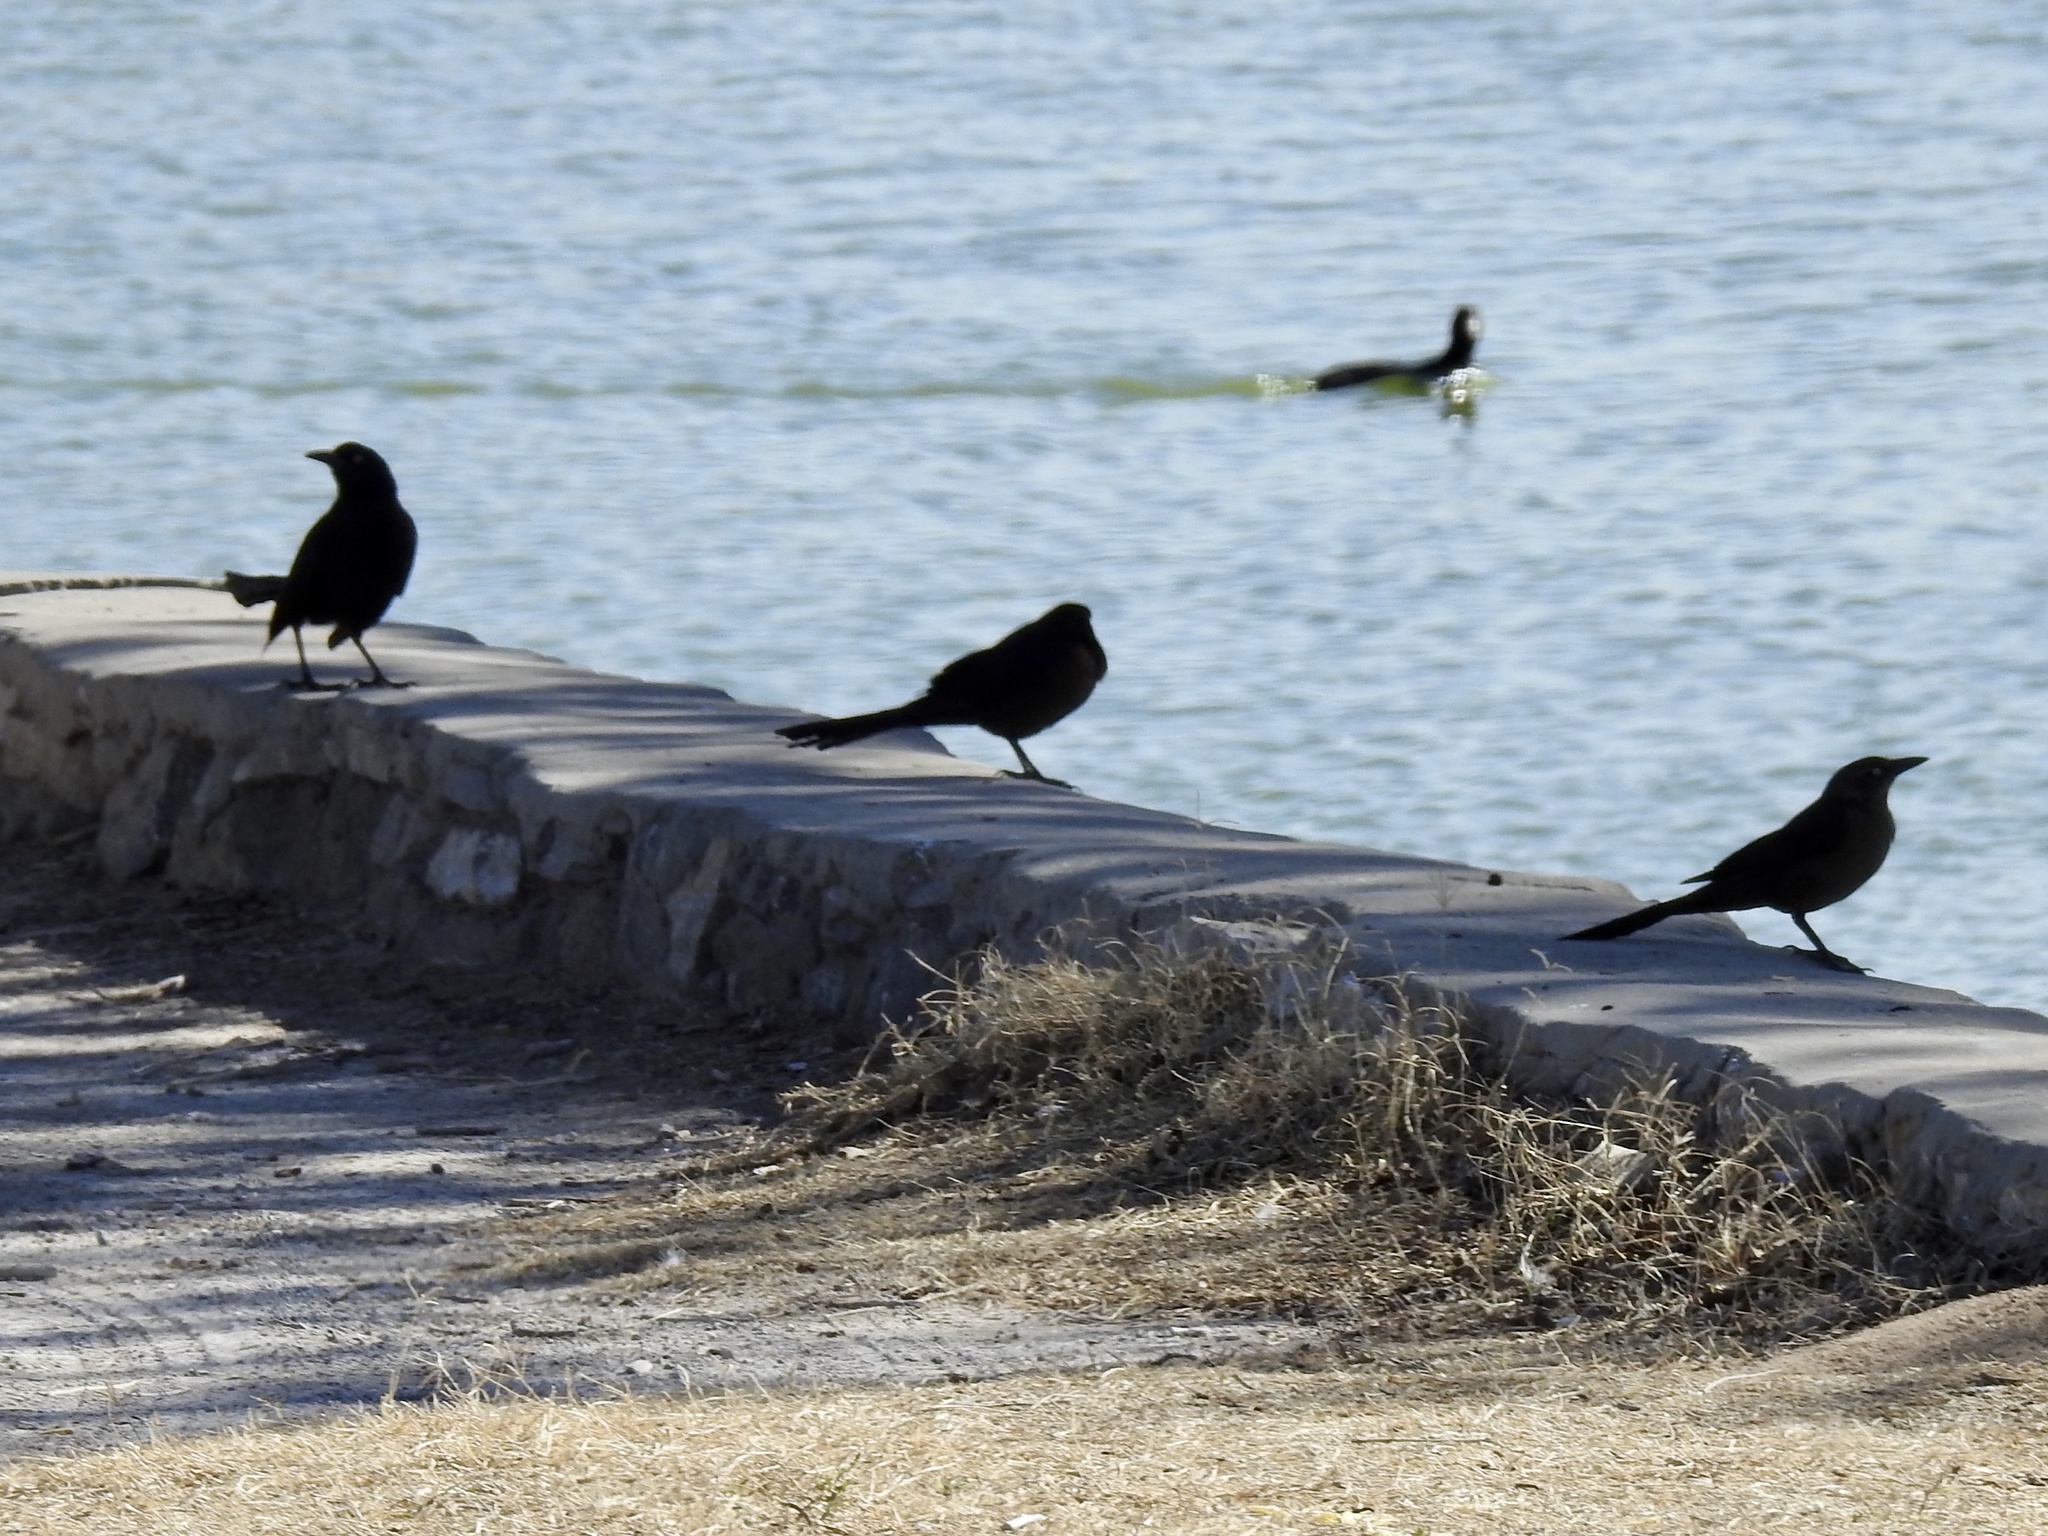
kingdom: Animalia
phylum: Chordata
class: Aves
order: Passeriformes
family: Icteridae
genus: Quiscalus
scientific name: Quiscalus mexicanus
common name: Great-tailed grackle
